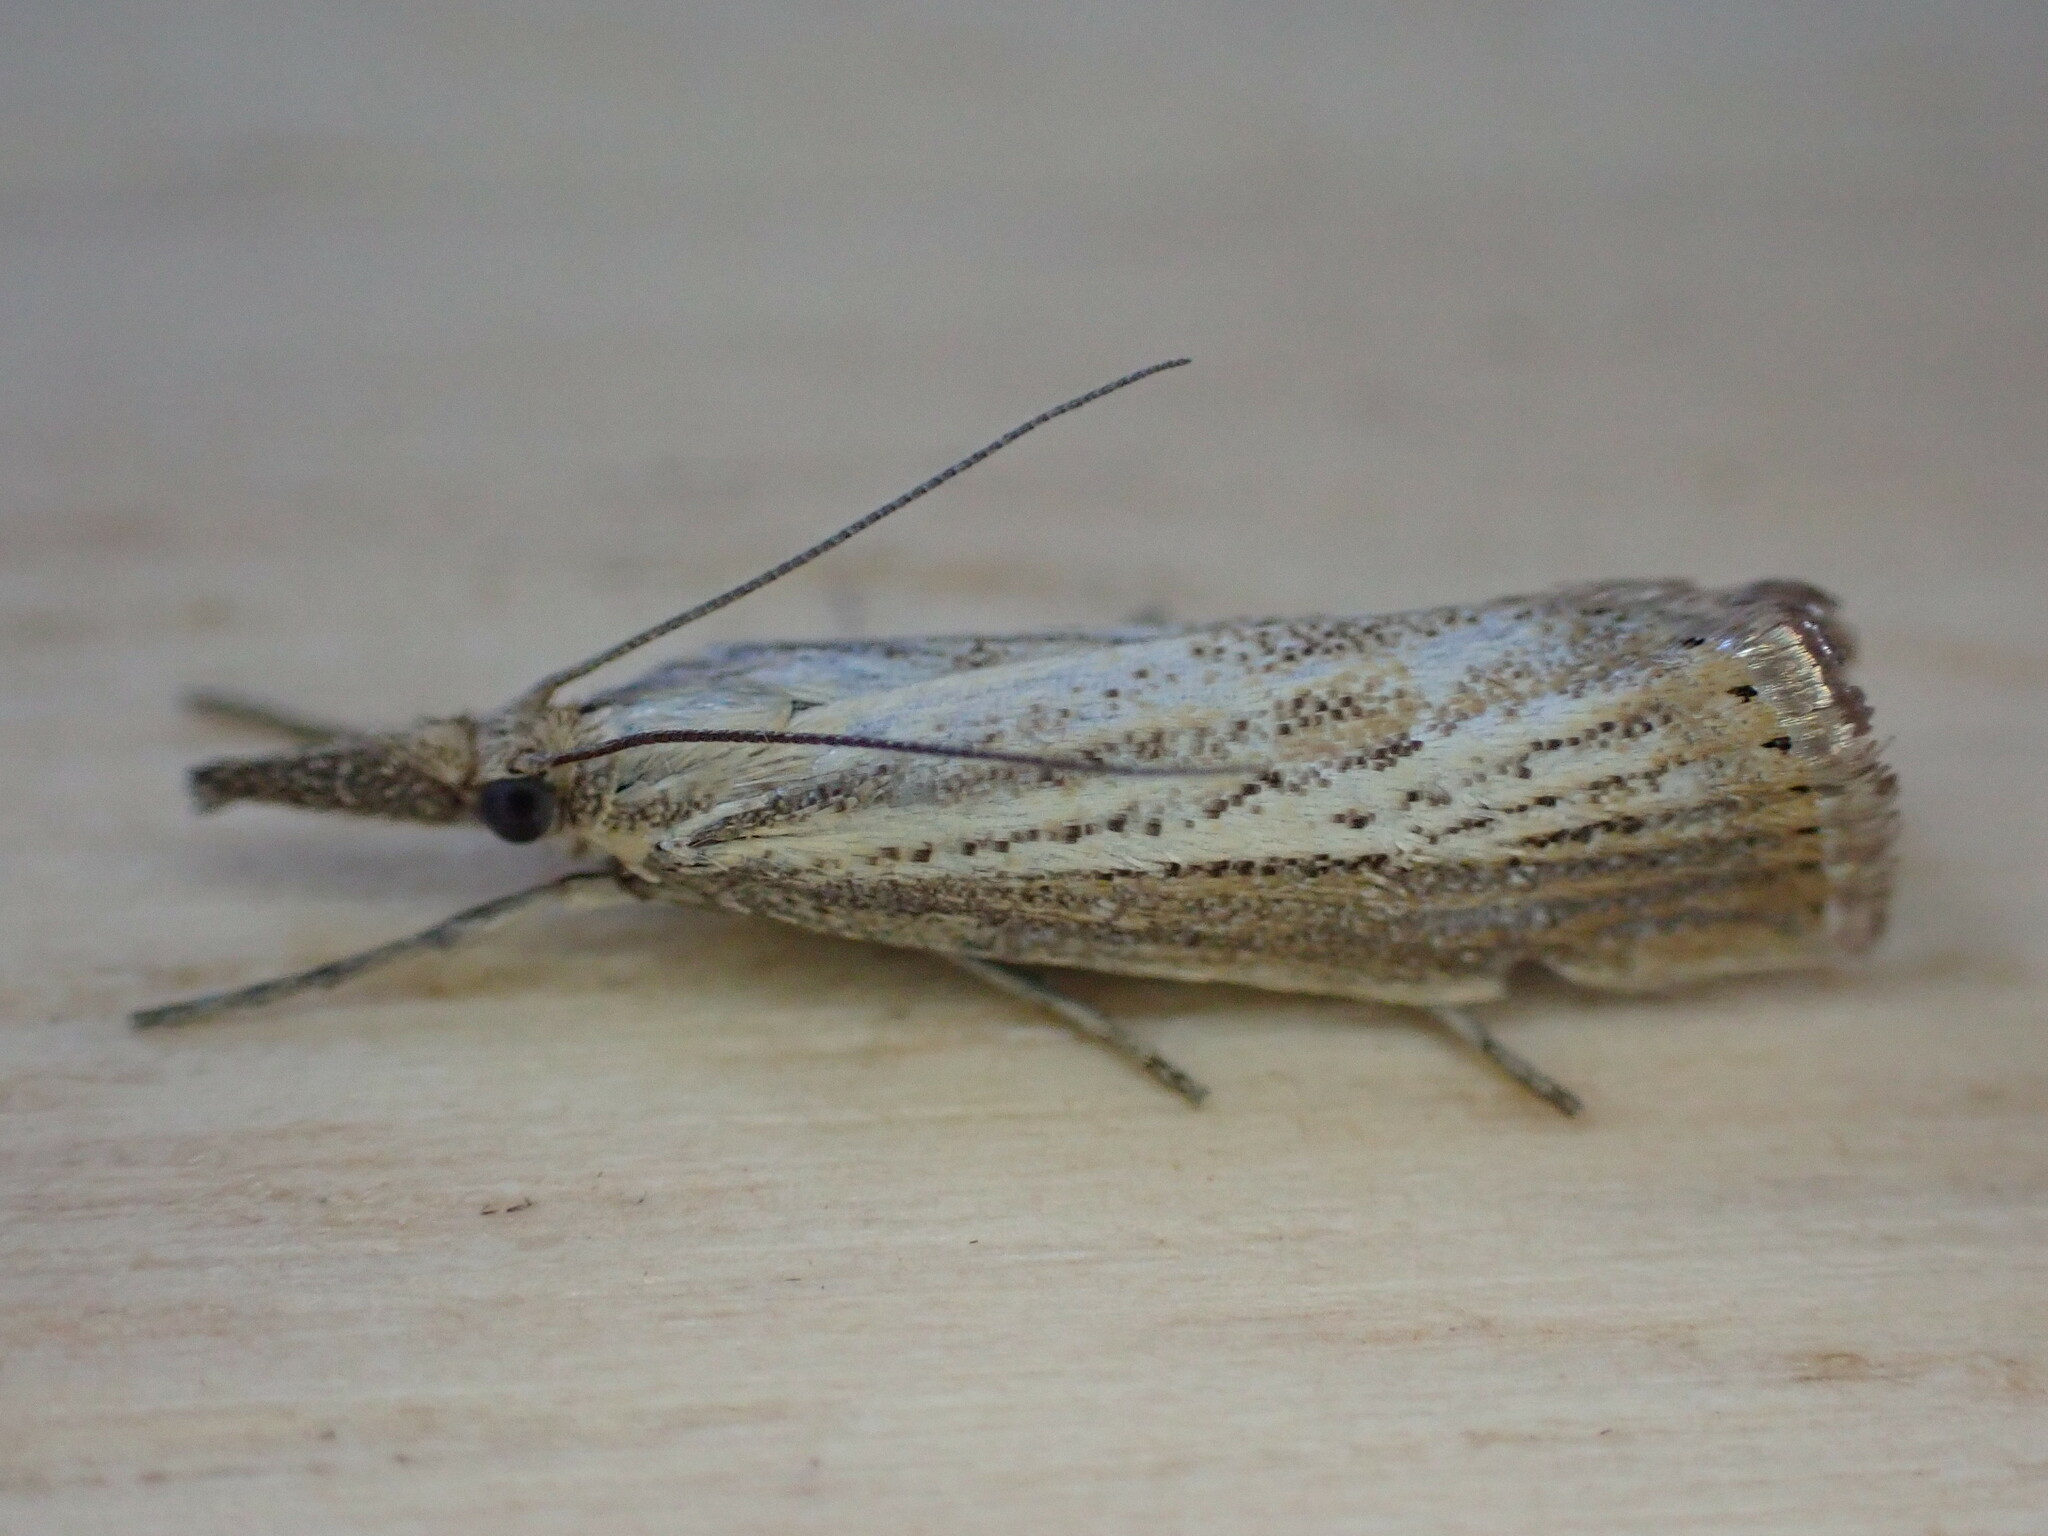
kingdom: Animalia
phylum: Arthropoda
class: Insecta
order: Lepidoptera
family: Crambidae
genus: Agriphila
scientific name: Agriphila straminella
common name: Straw grass-veneer
